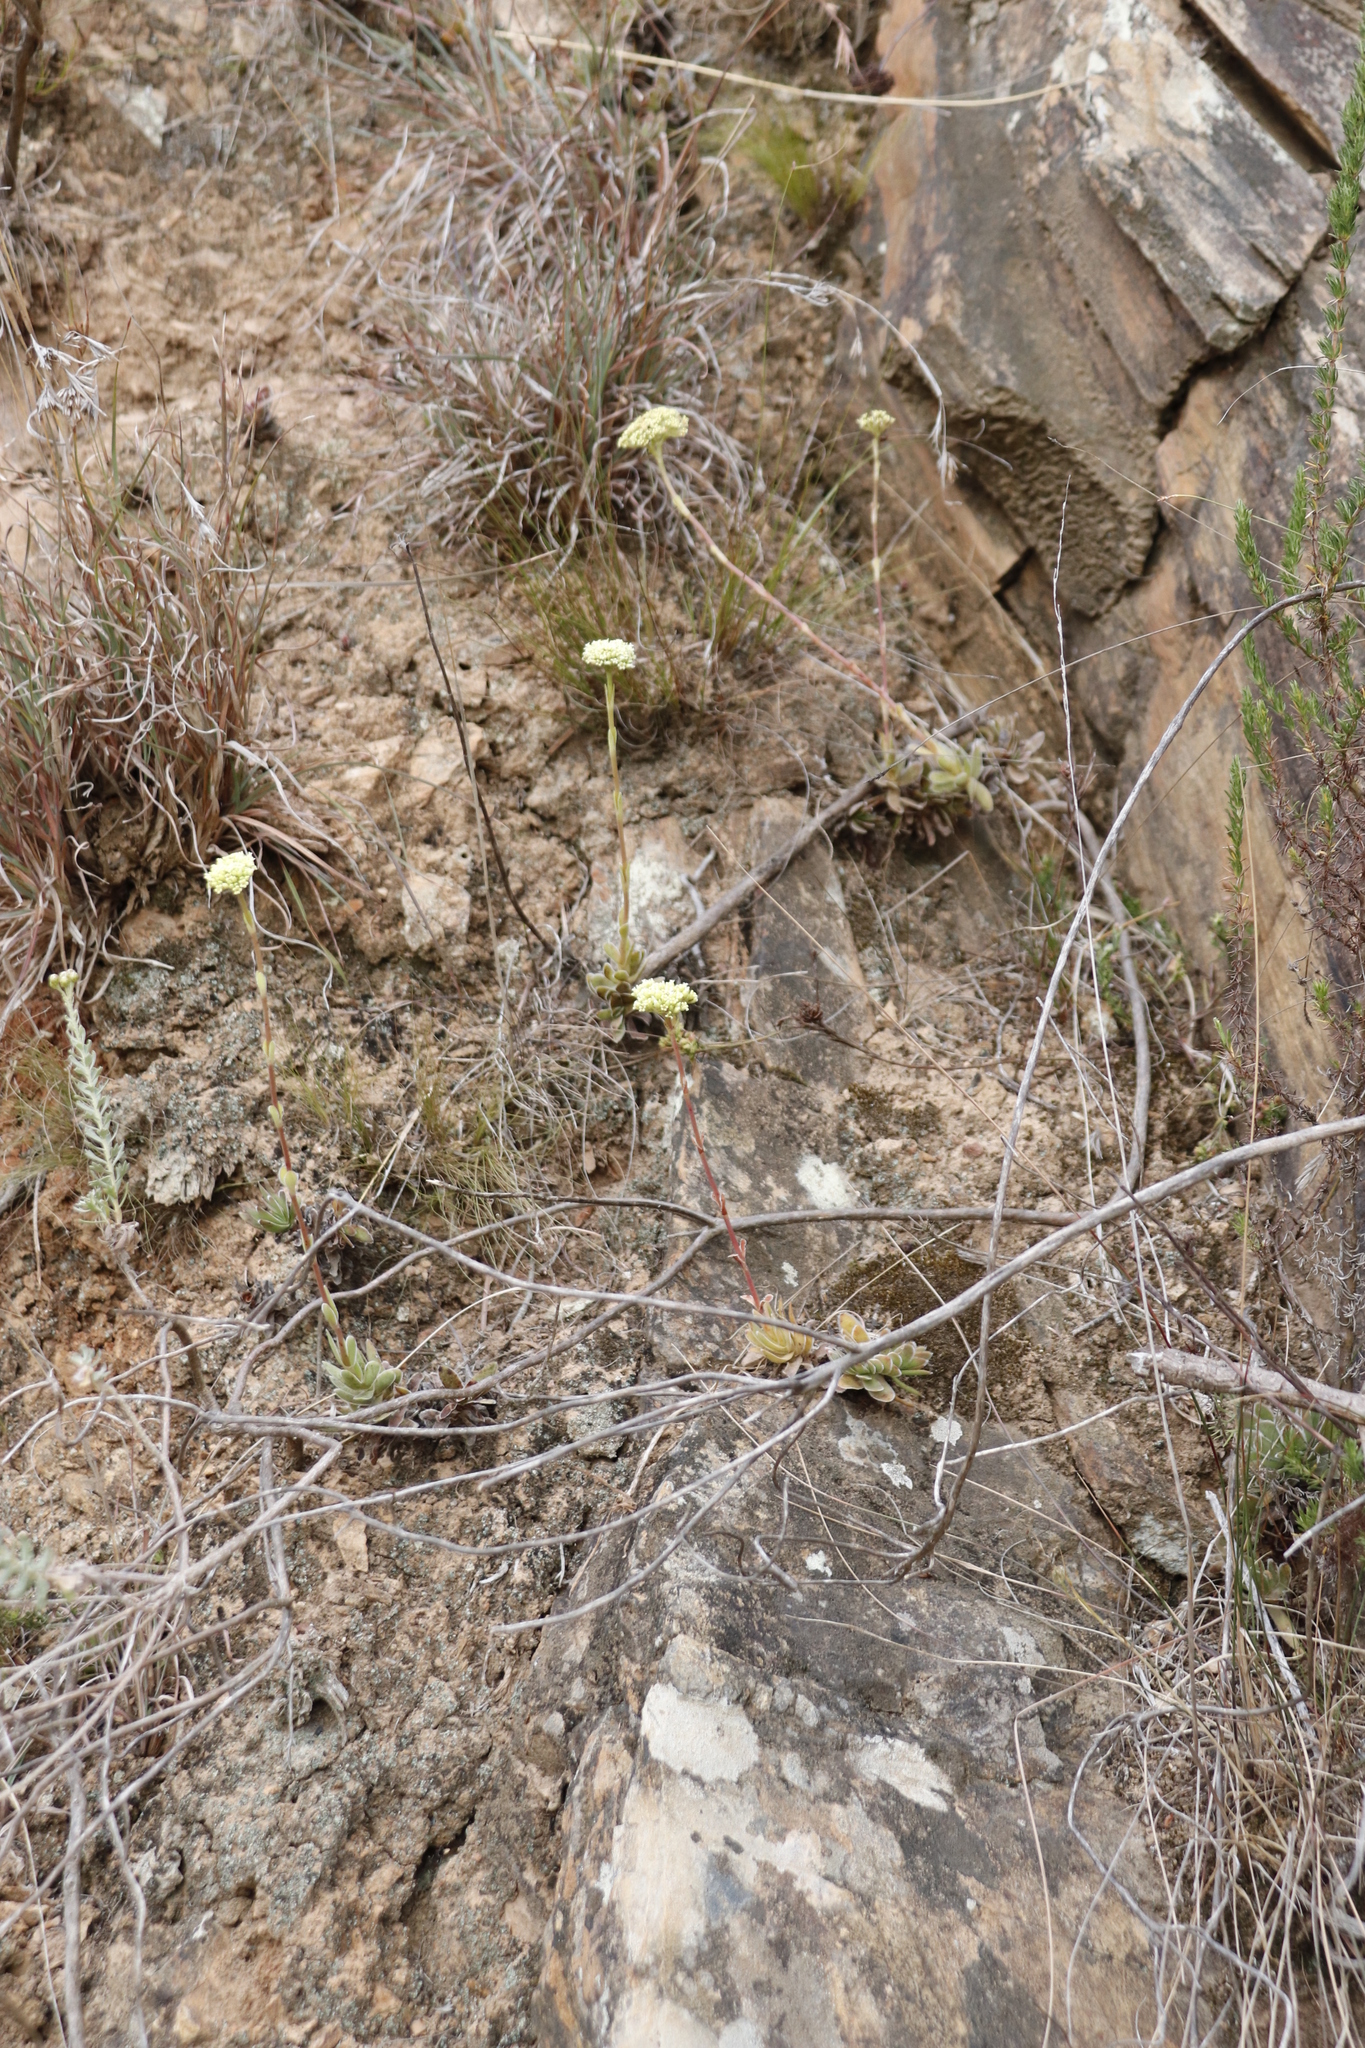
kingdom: Plantae
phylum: Tracheophyta
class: Magnoliopsida
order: Saxifragales
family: Crassulaceae
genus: Crassula
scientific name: Crassula ciliata
